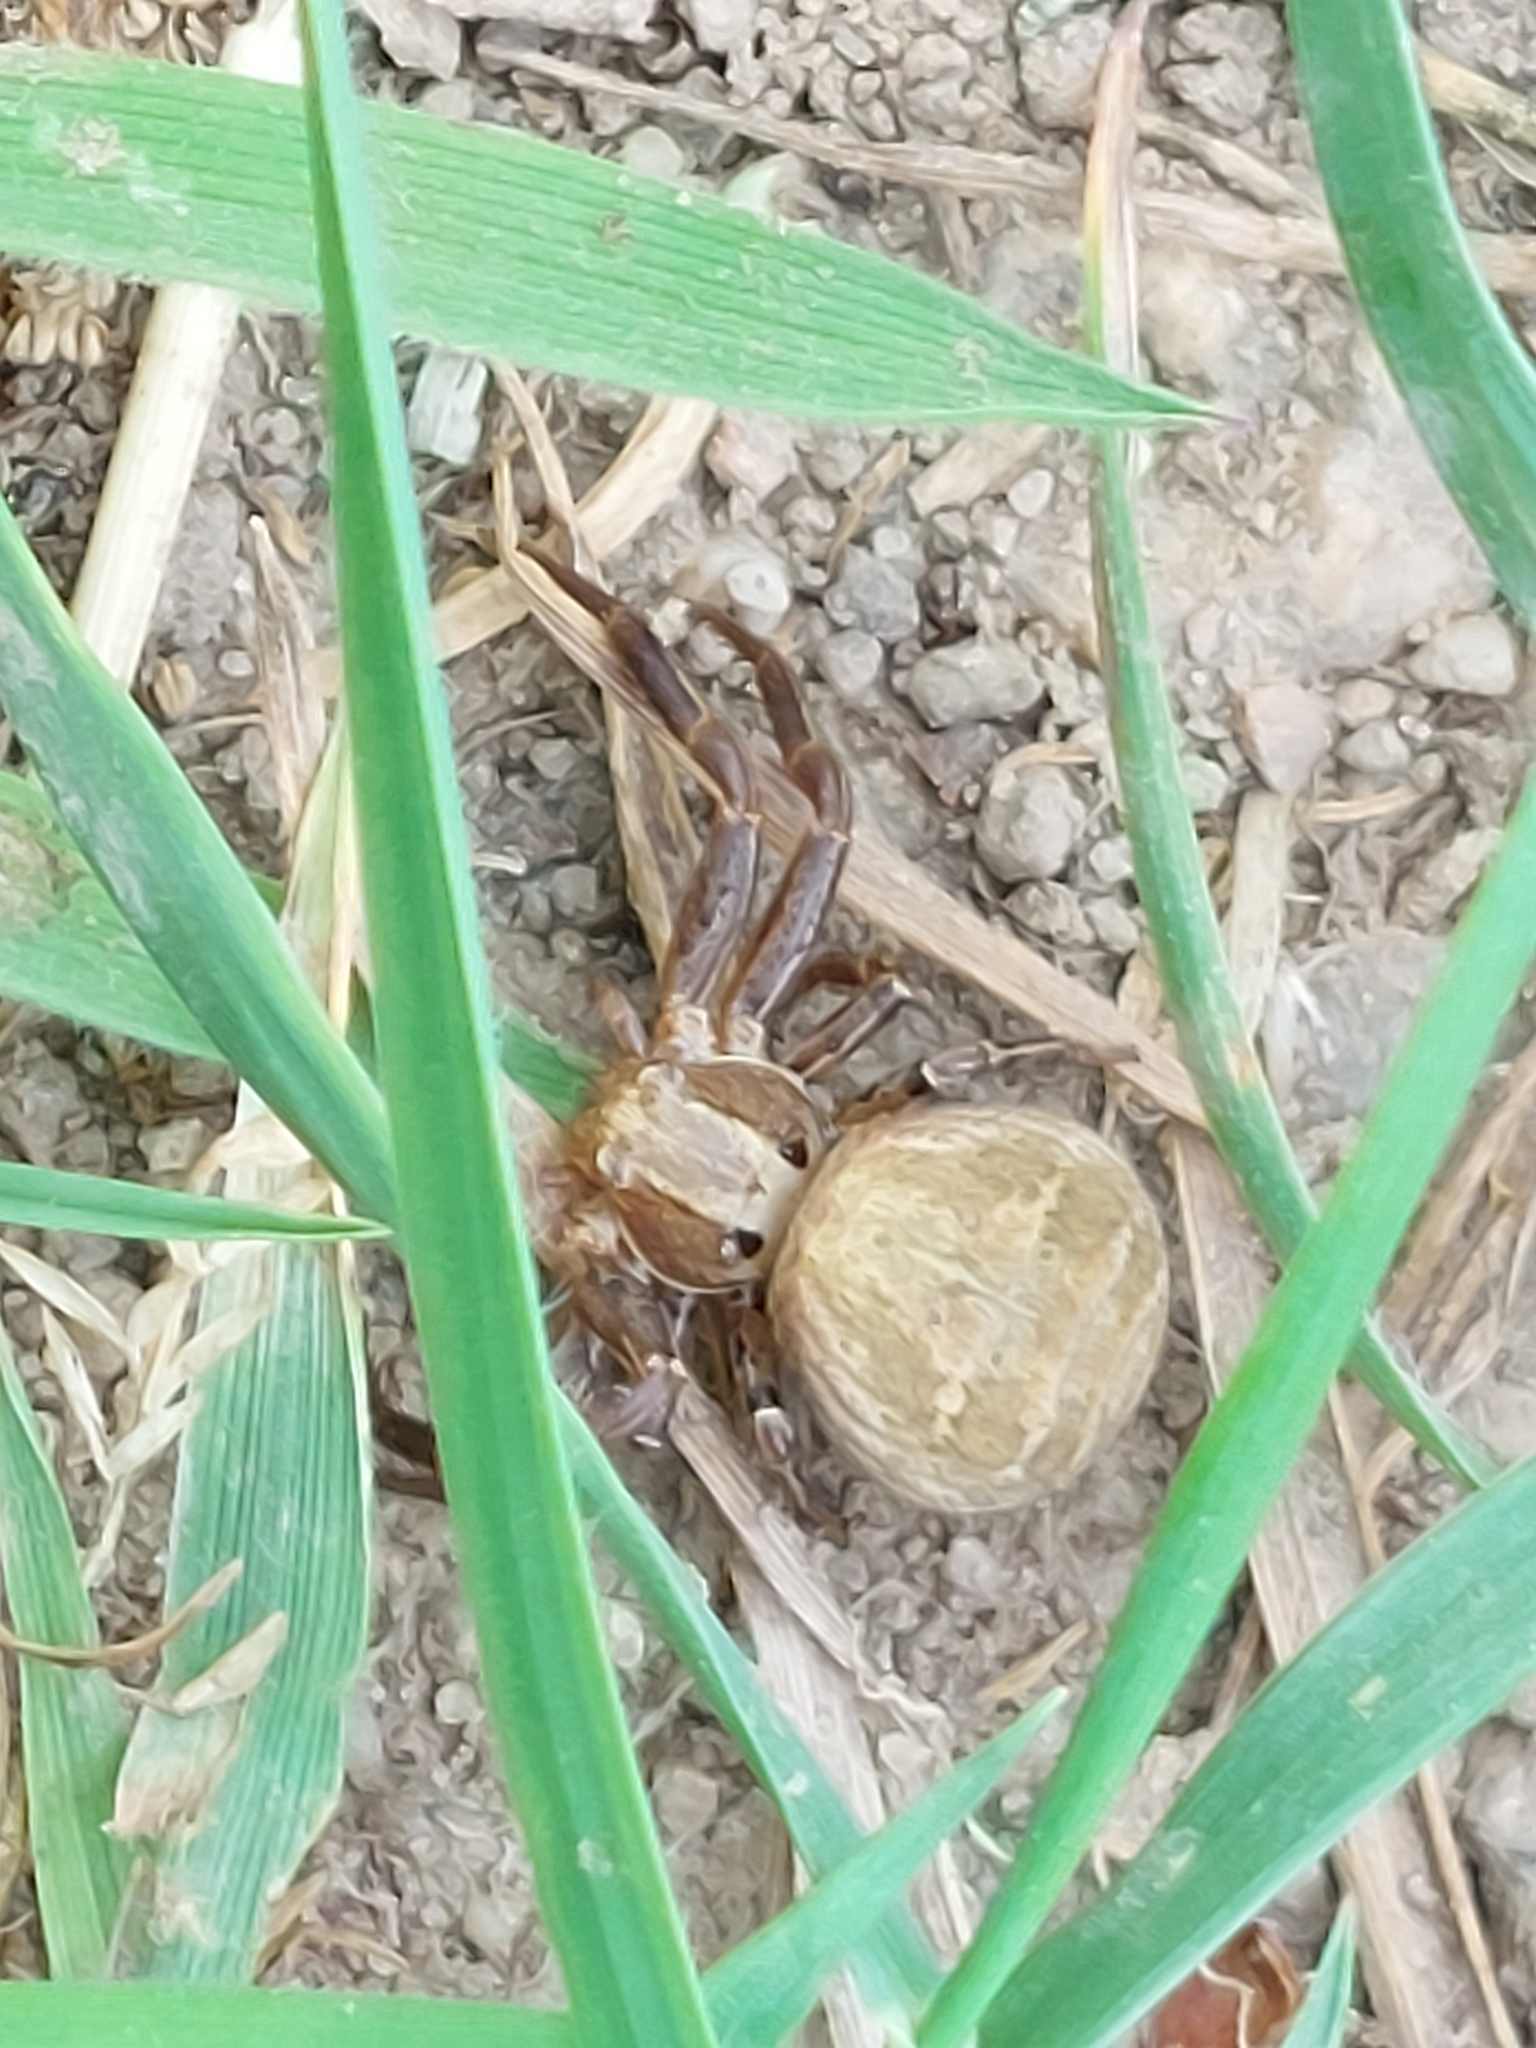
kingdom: Animalia
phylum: Arthropoda
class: Arachnida
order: Araneae
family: Thomisidae
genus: Xysticus
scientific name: Xysticus
